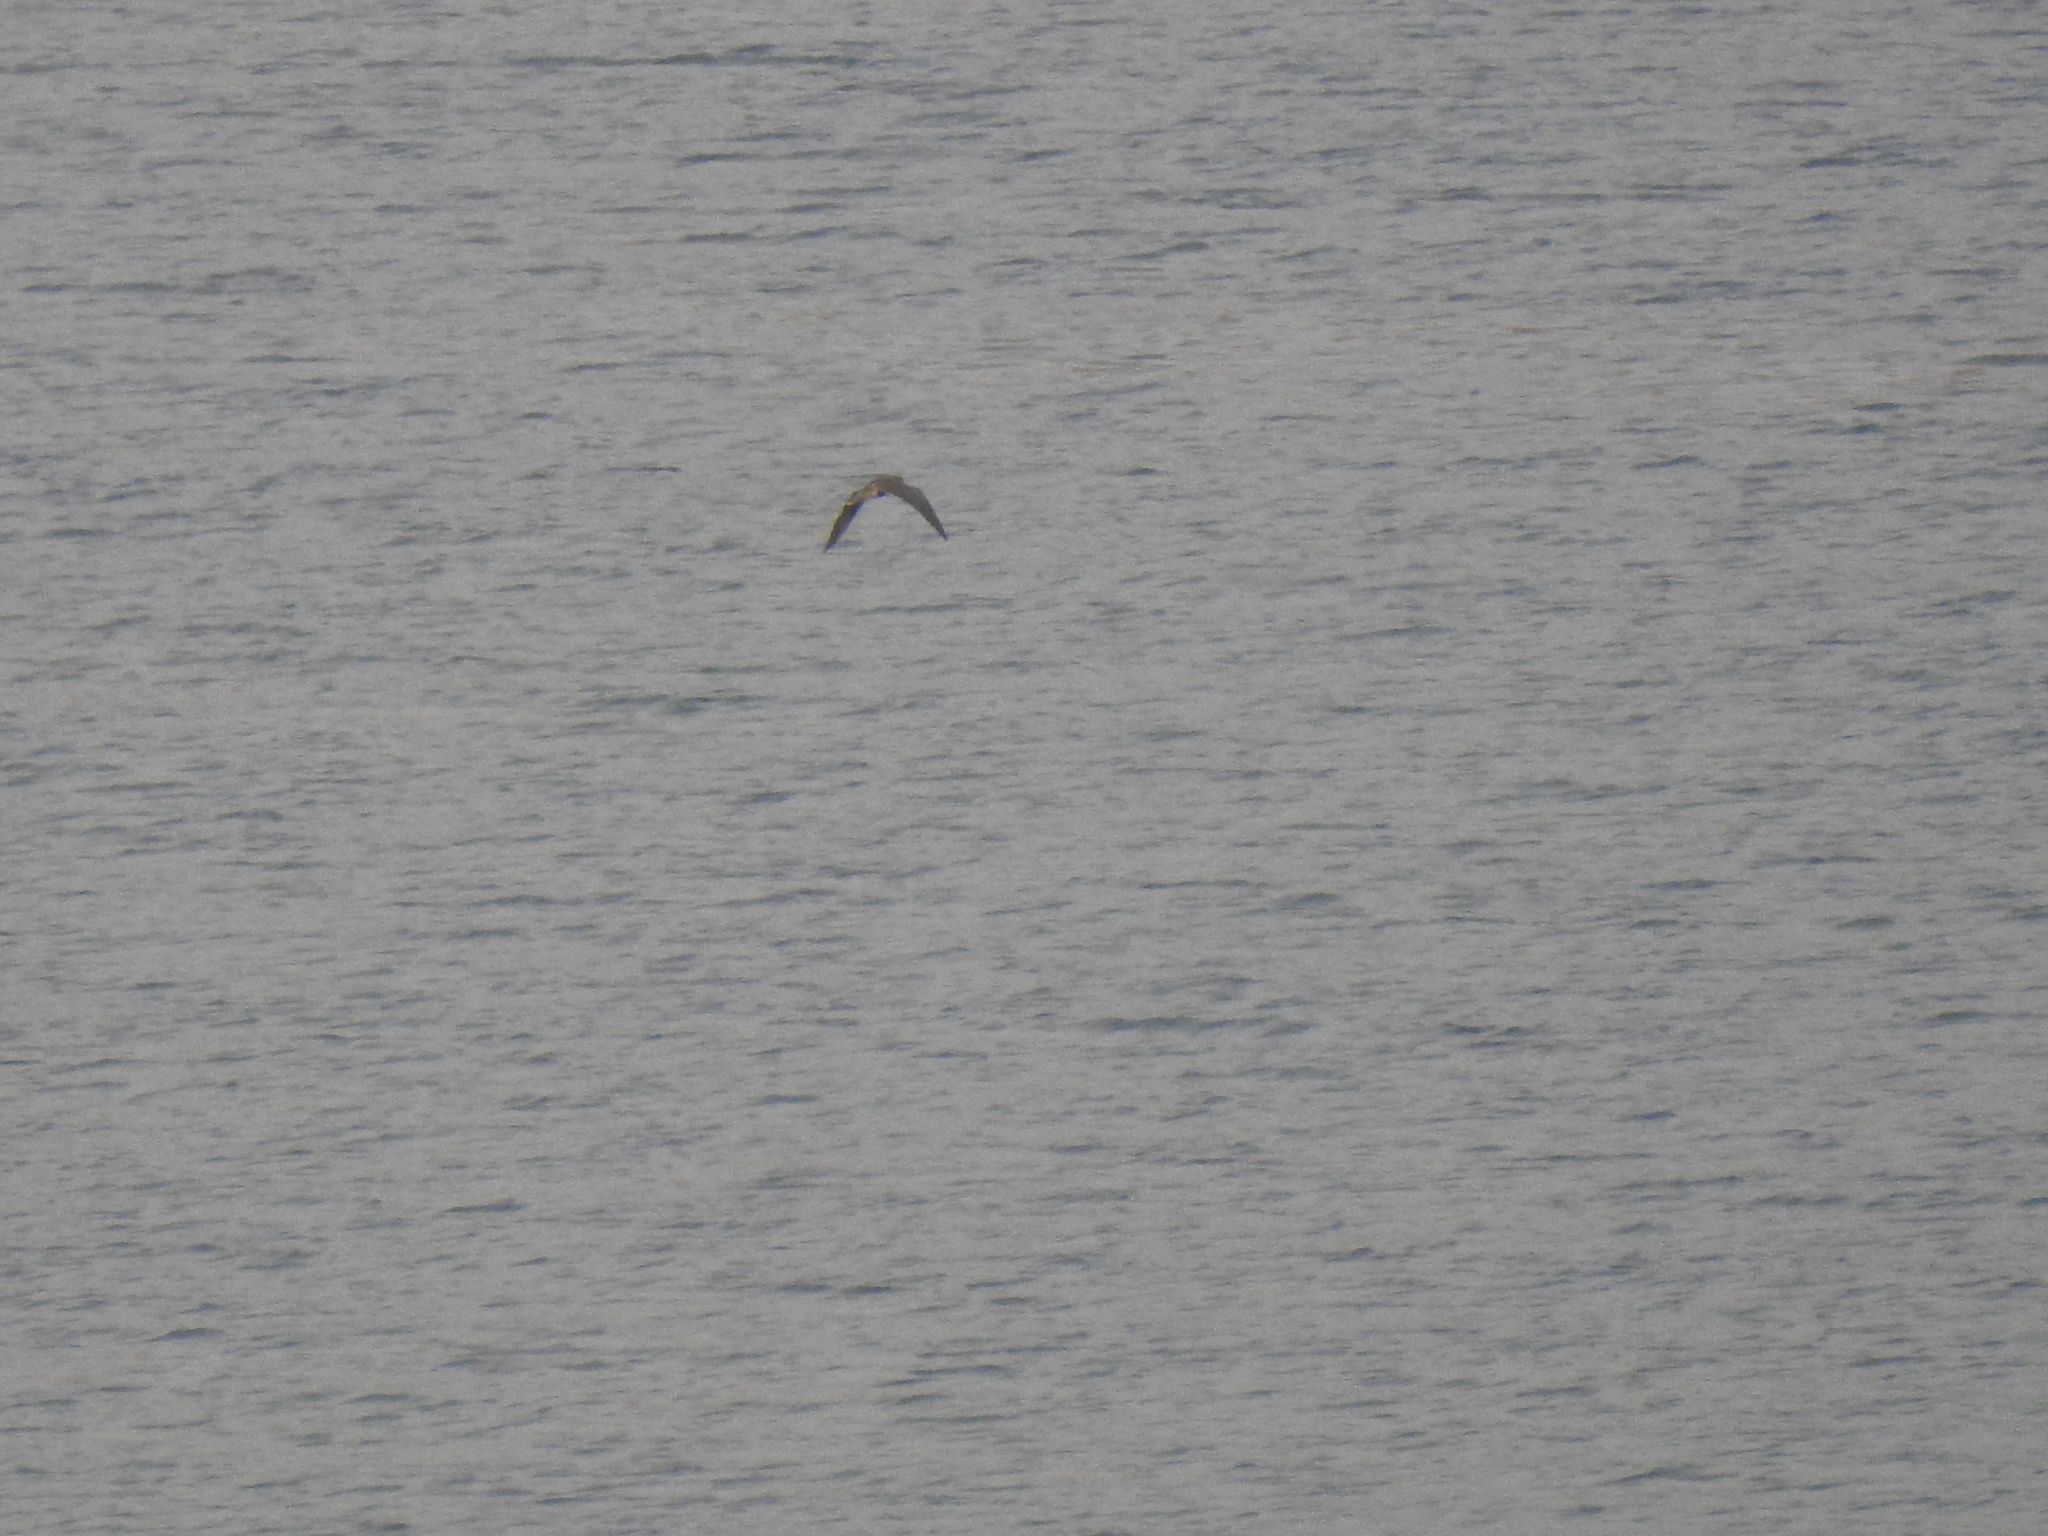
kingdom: Animalia
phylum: Chordata
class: Aves
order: Falconiformes
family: Falconidae
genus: Falco
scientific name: Falco peregrinus
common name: Peregrine falcon
